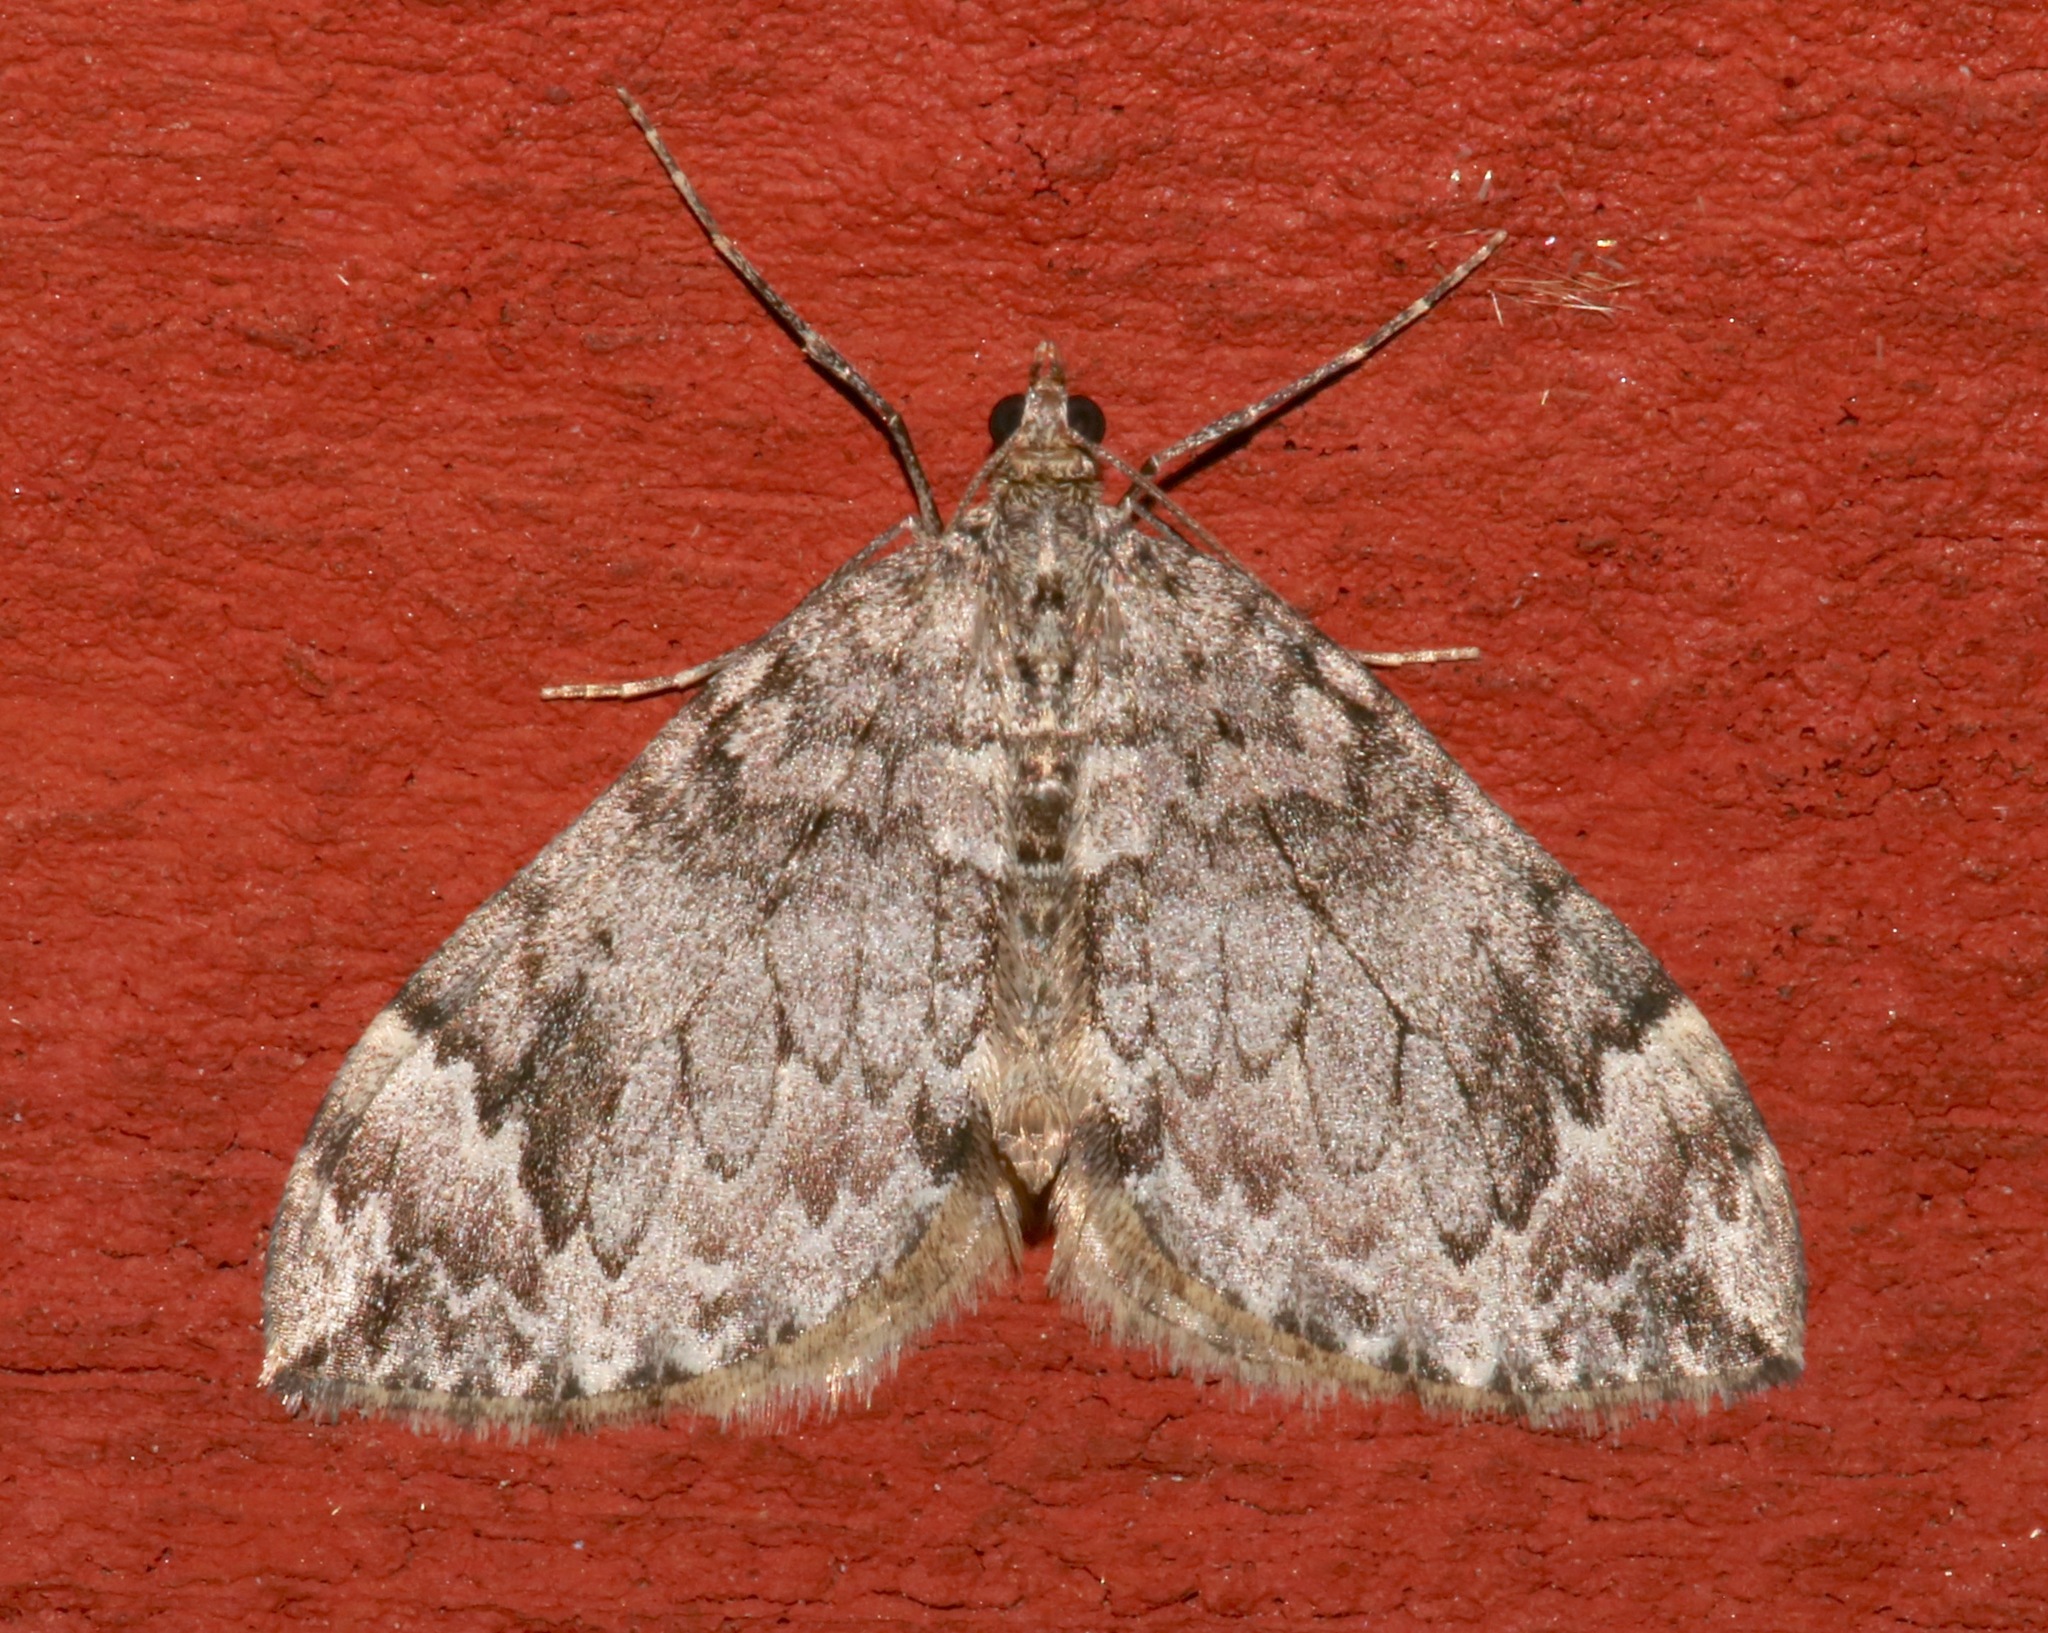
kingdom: Animalia
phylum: Arthropoda
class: Insecta
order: Lepidoptera
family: Geometridae
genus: Dysstroma
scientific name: Dysstroma citrata
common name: Dark marbled carpet
